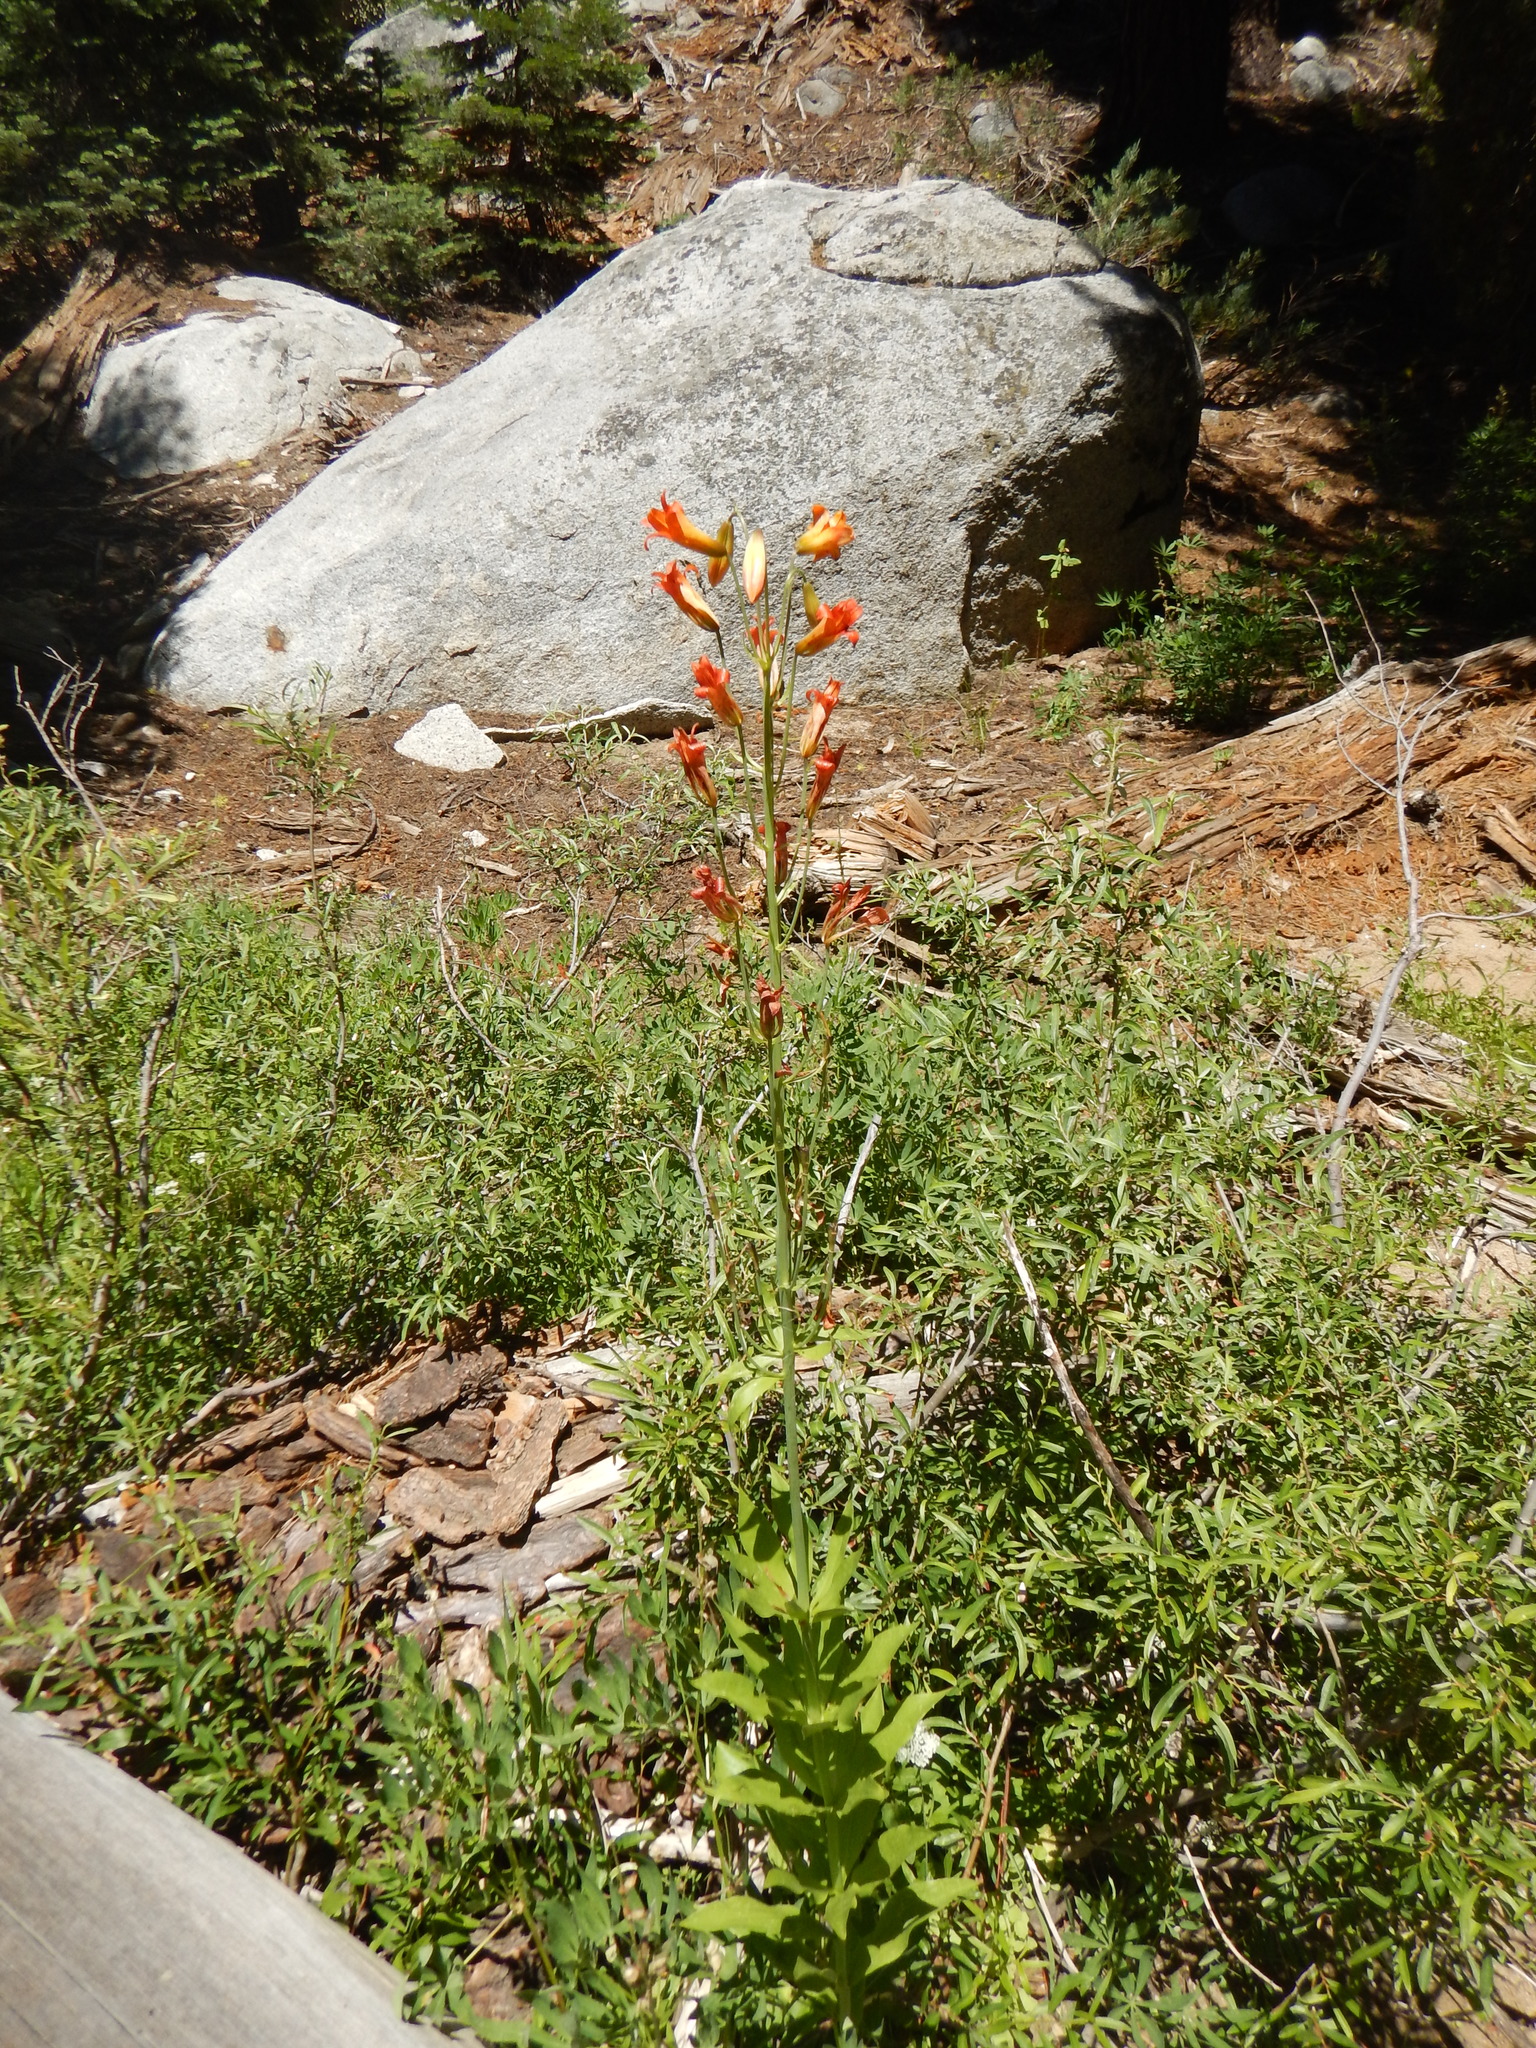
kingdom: Plantae
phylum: Tracheophyta
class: Liliopsida
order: Liliales
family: Liliaceae
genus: Lilium
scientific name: Lilium parvum
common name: Alpine lily
